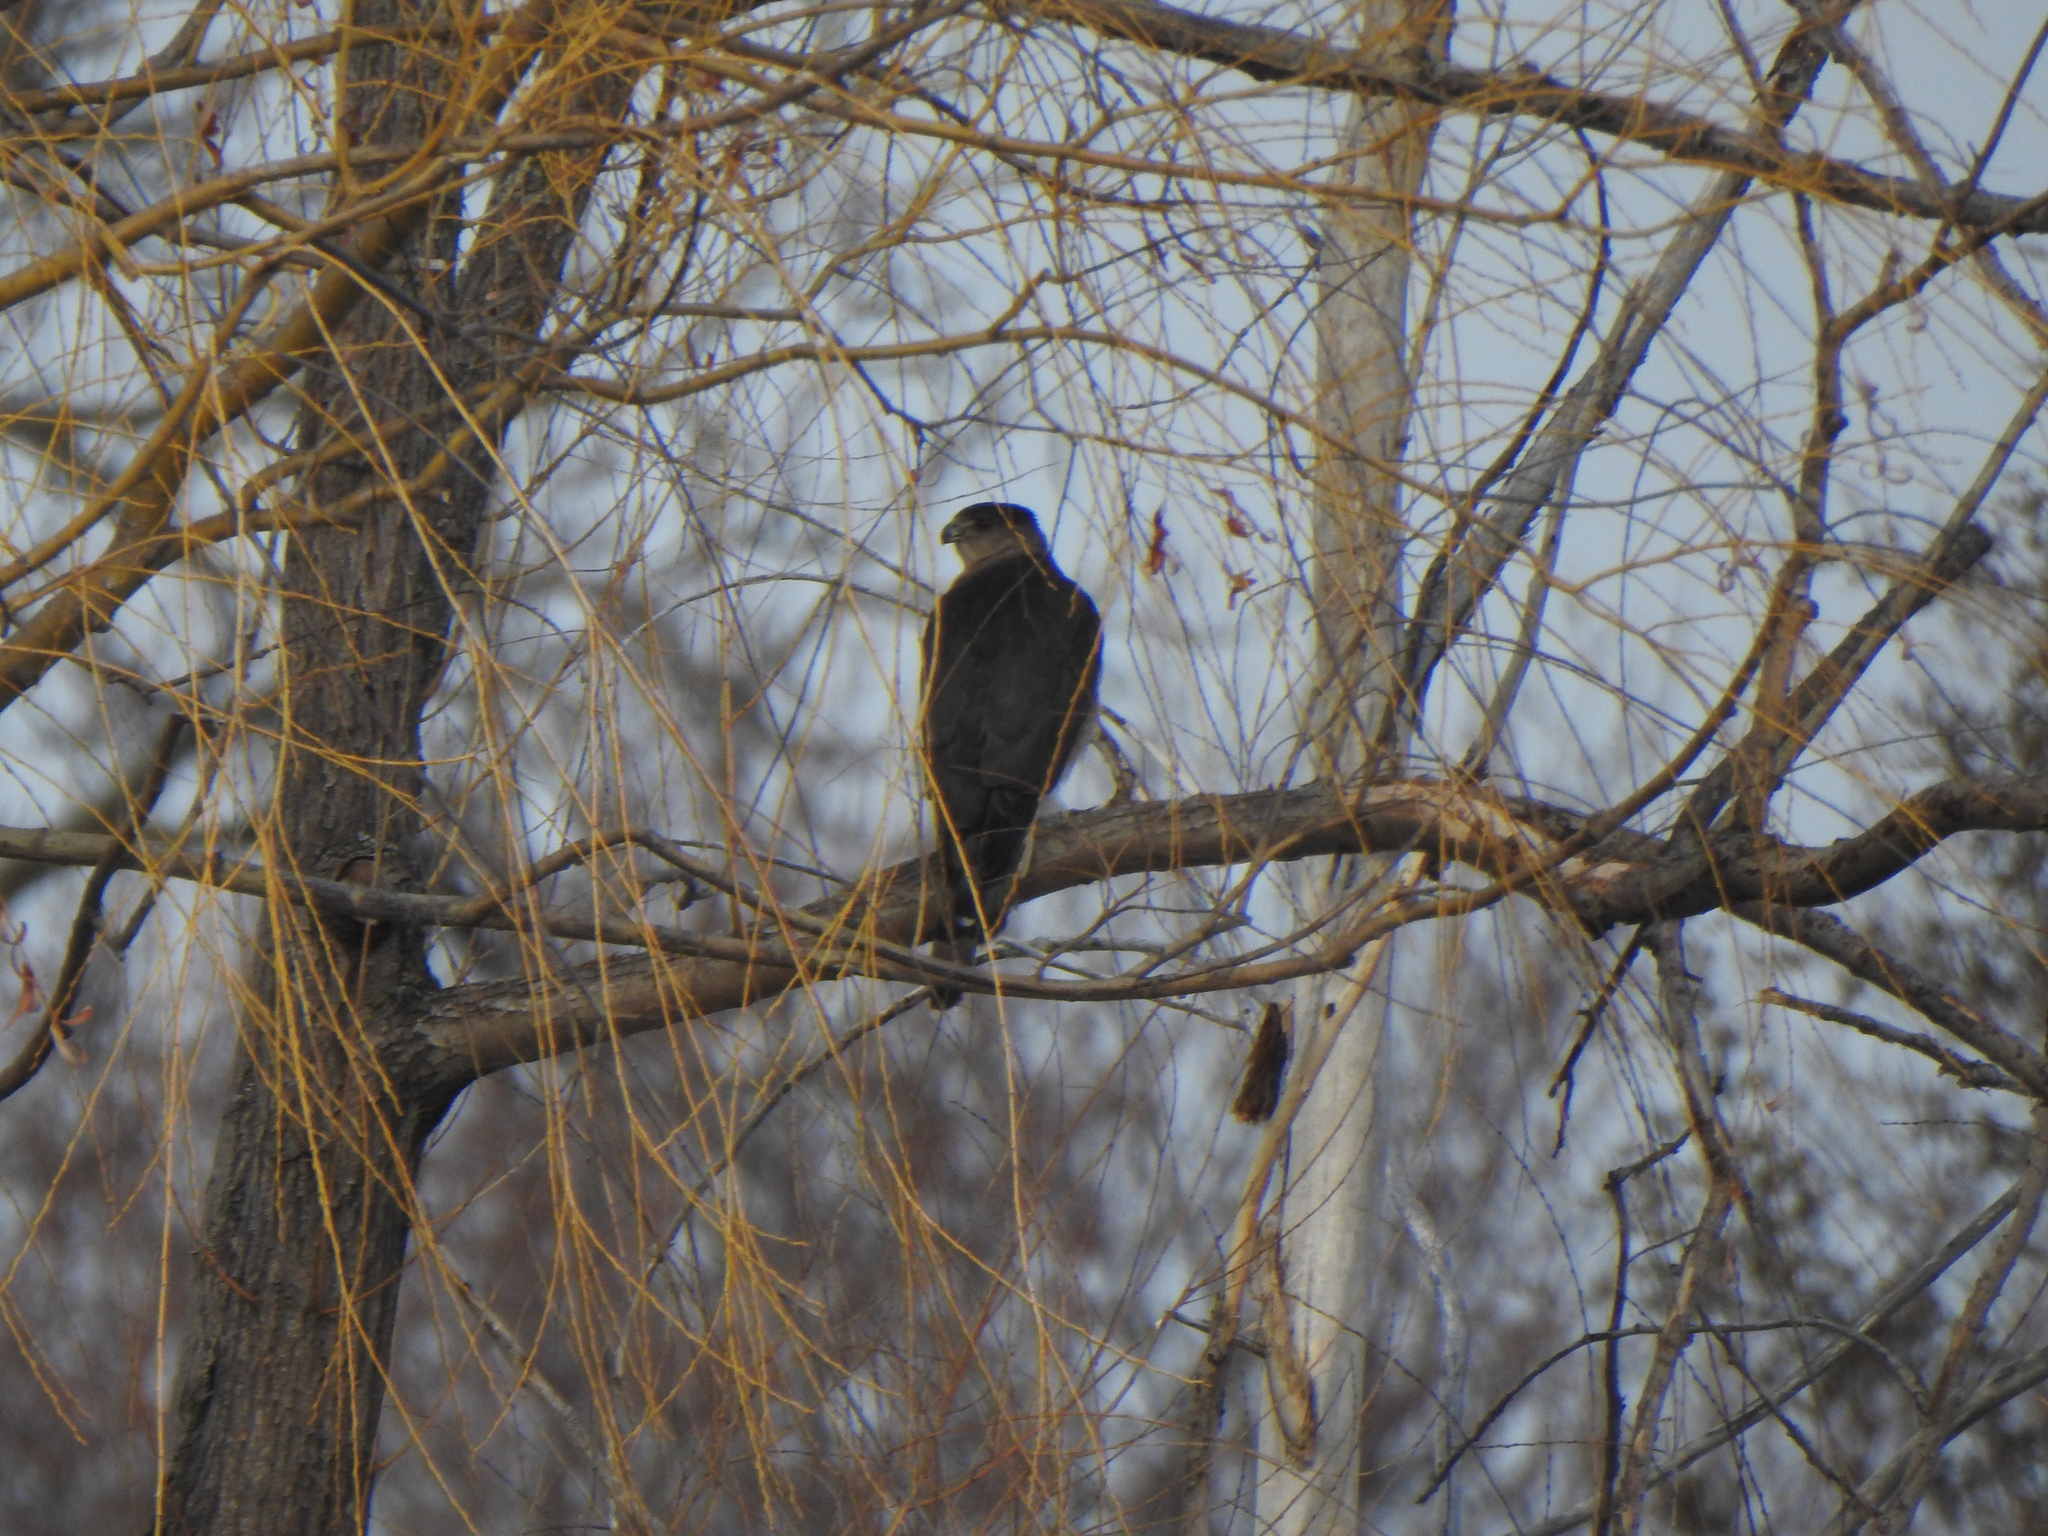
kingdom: Animalia
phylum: Chordata
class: Aves
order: Accipitriformes
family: Accipitridae
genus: Accipiter
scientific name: Accipiter cooperii
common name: Cooper's hawk
